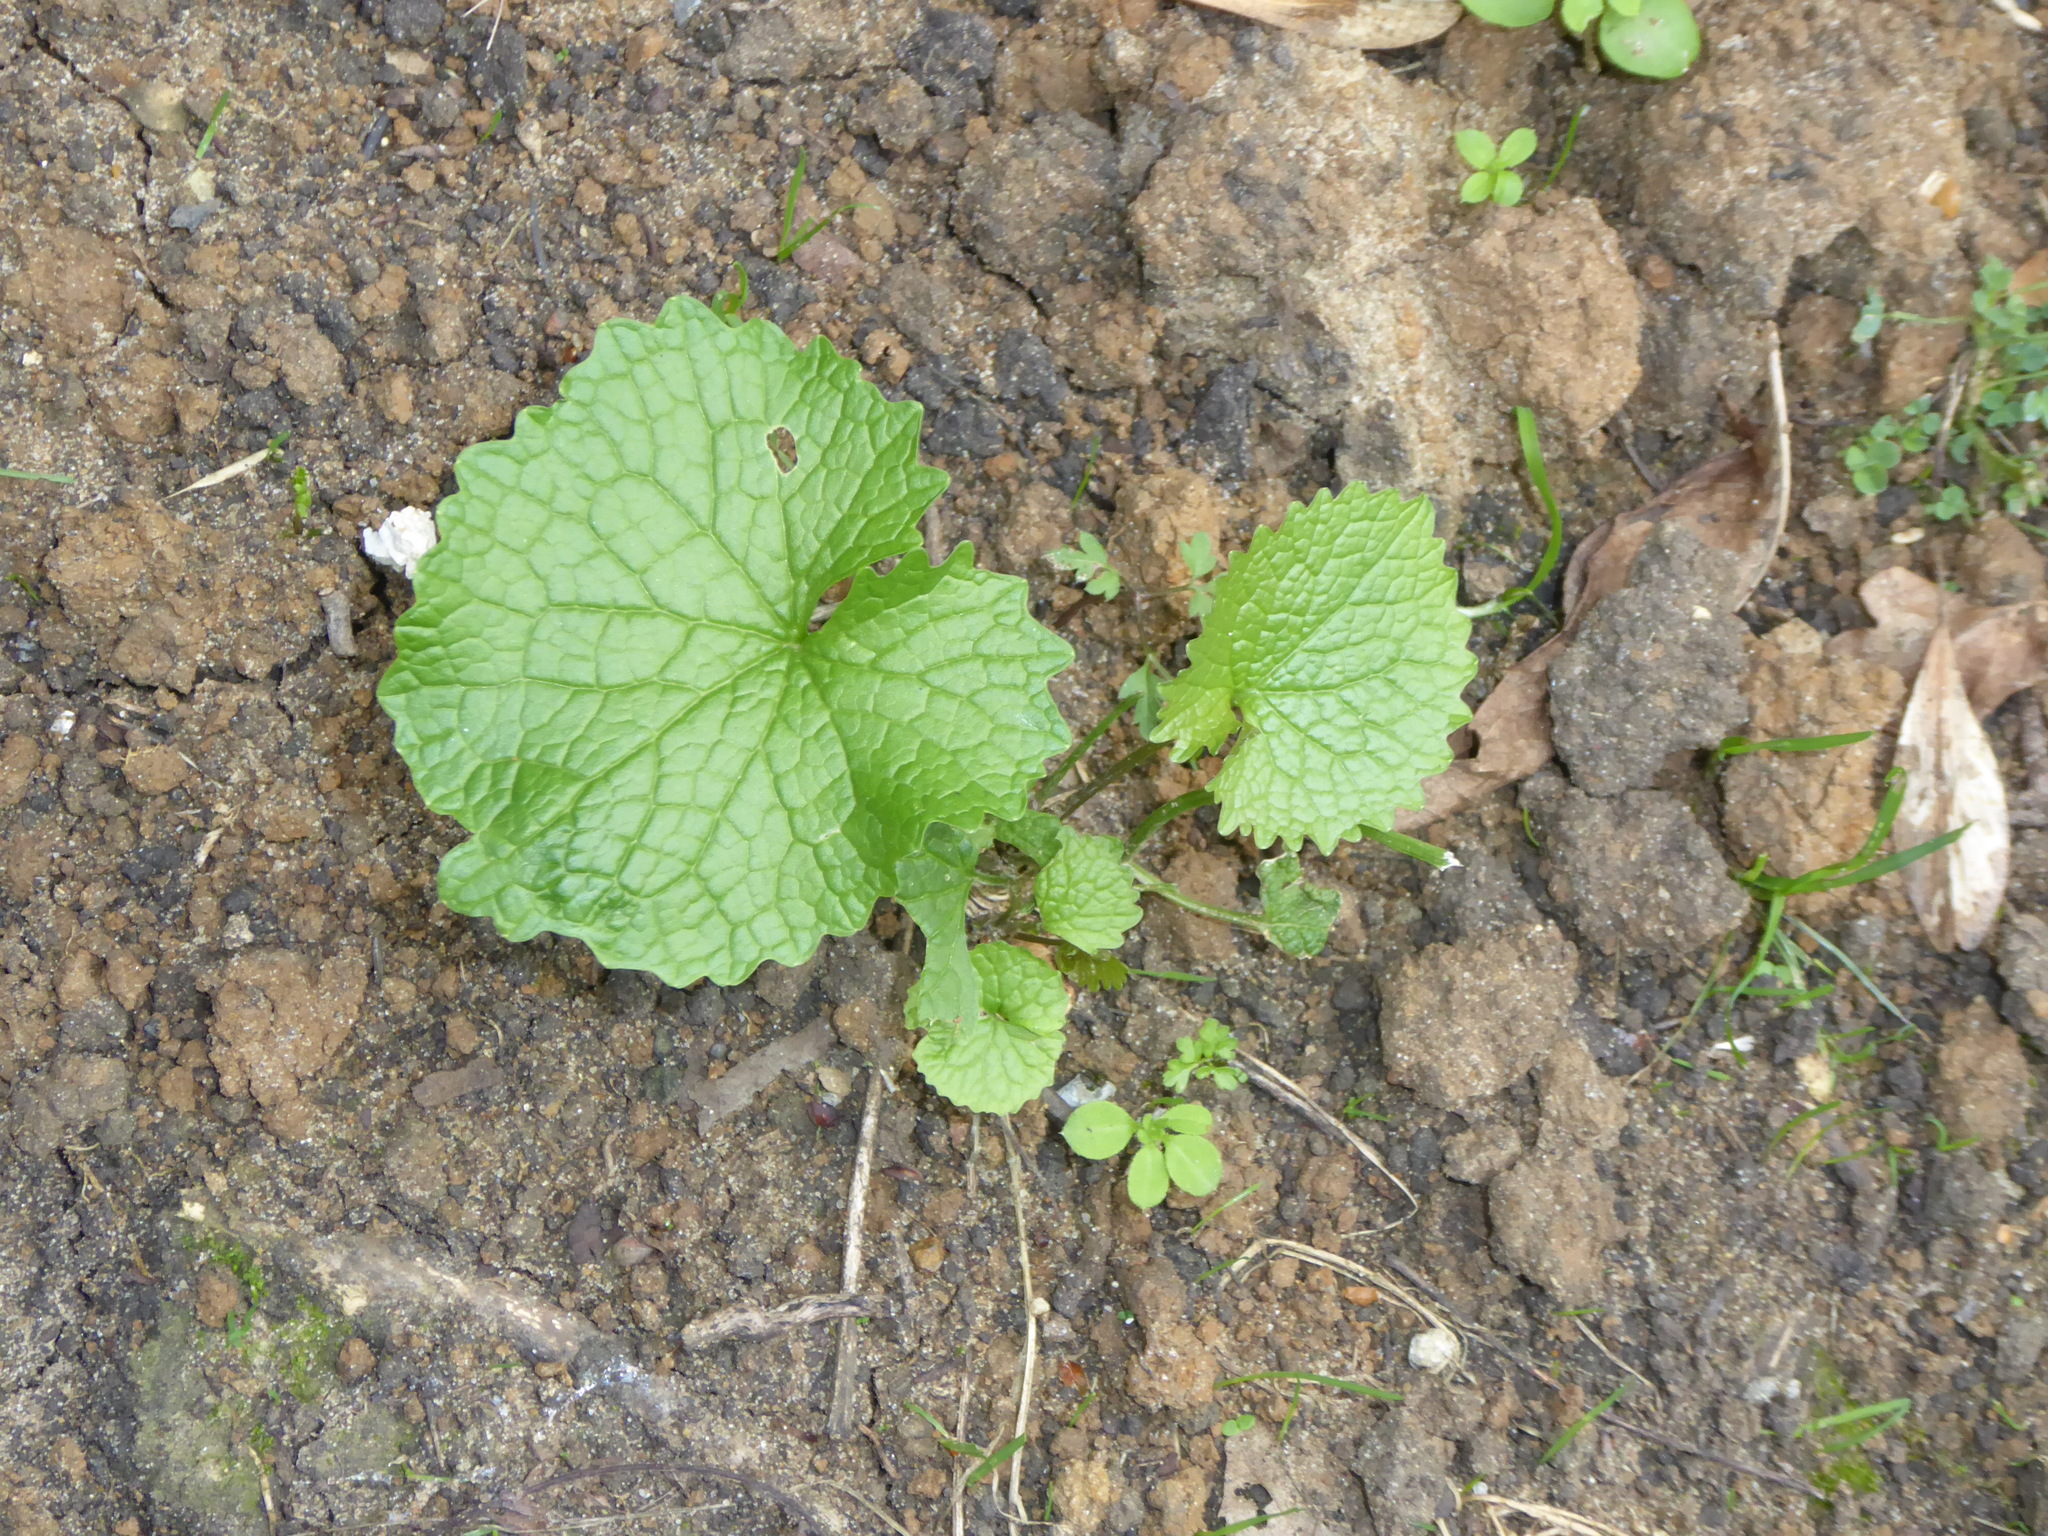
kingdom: Plantae
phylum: Tracheophyta
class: Magnoliopsida
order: Brassicales
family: Brassicaceae
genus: Alliaria
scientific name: Alliaria petiolata
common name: Garlic mustard
